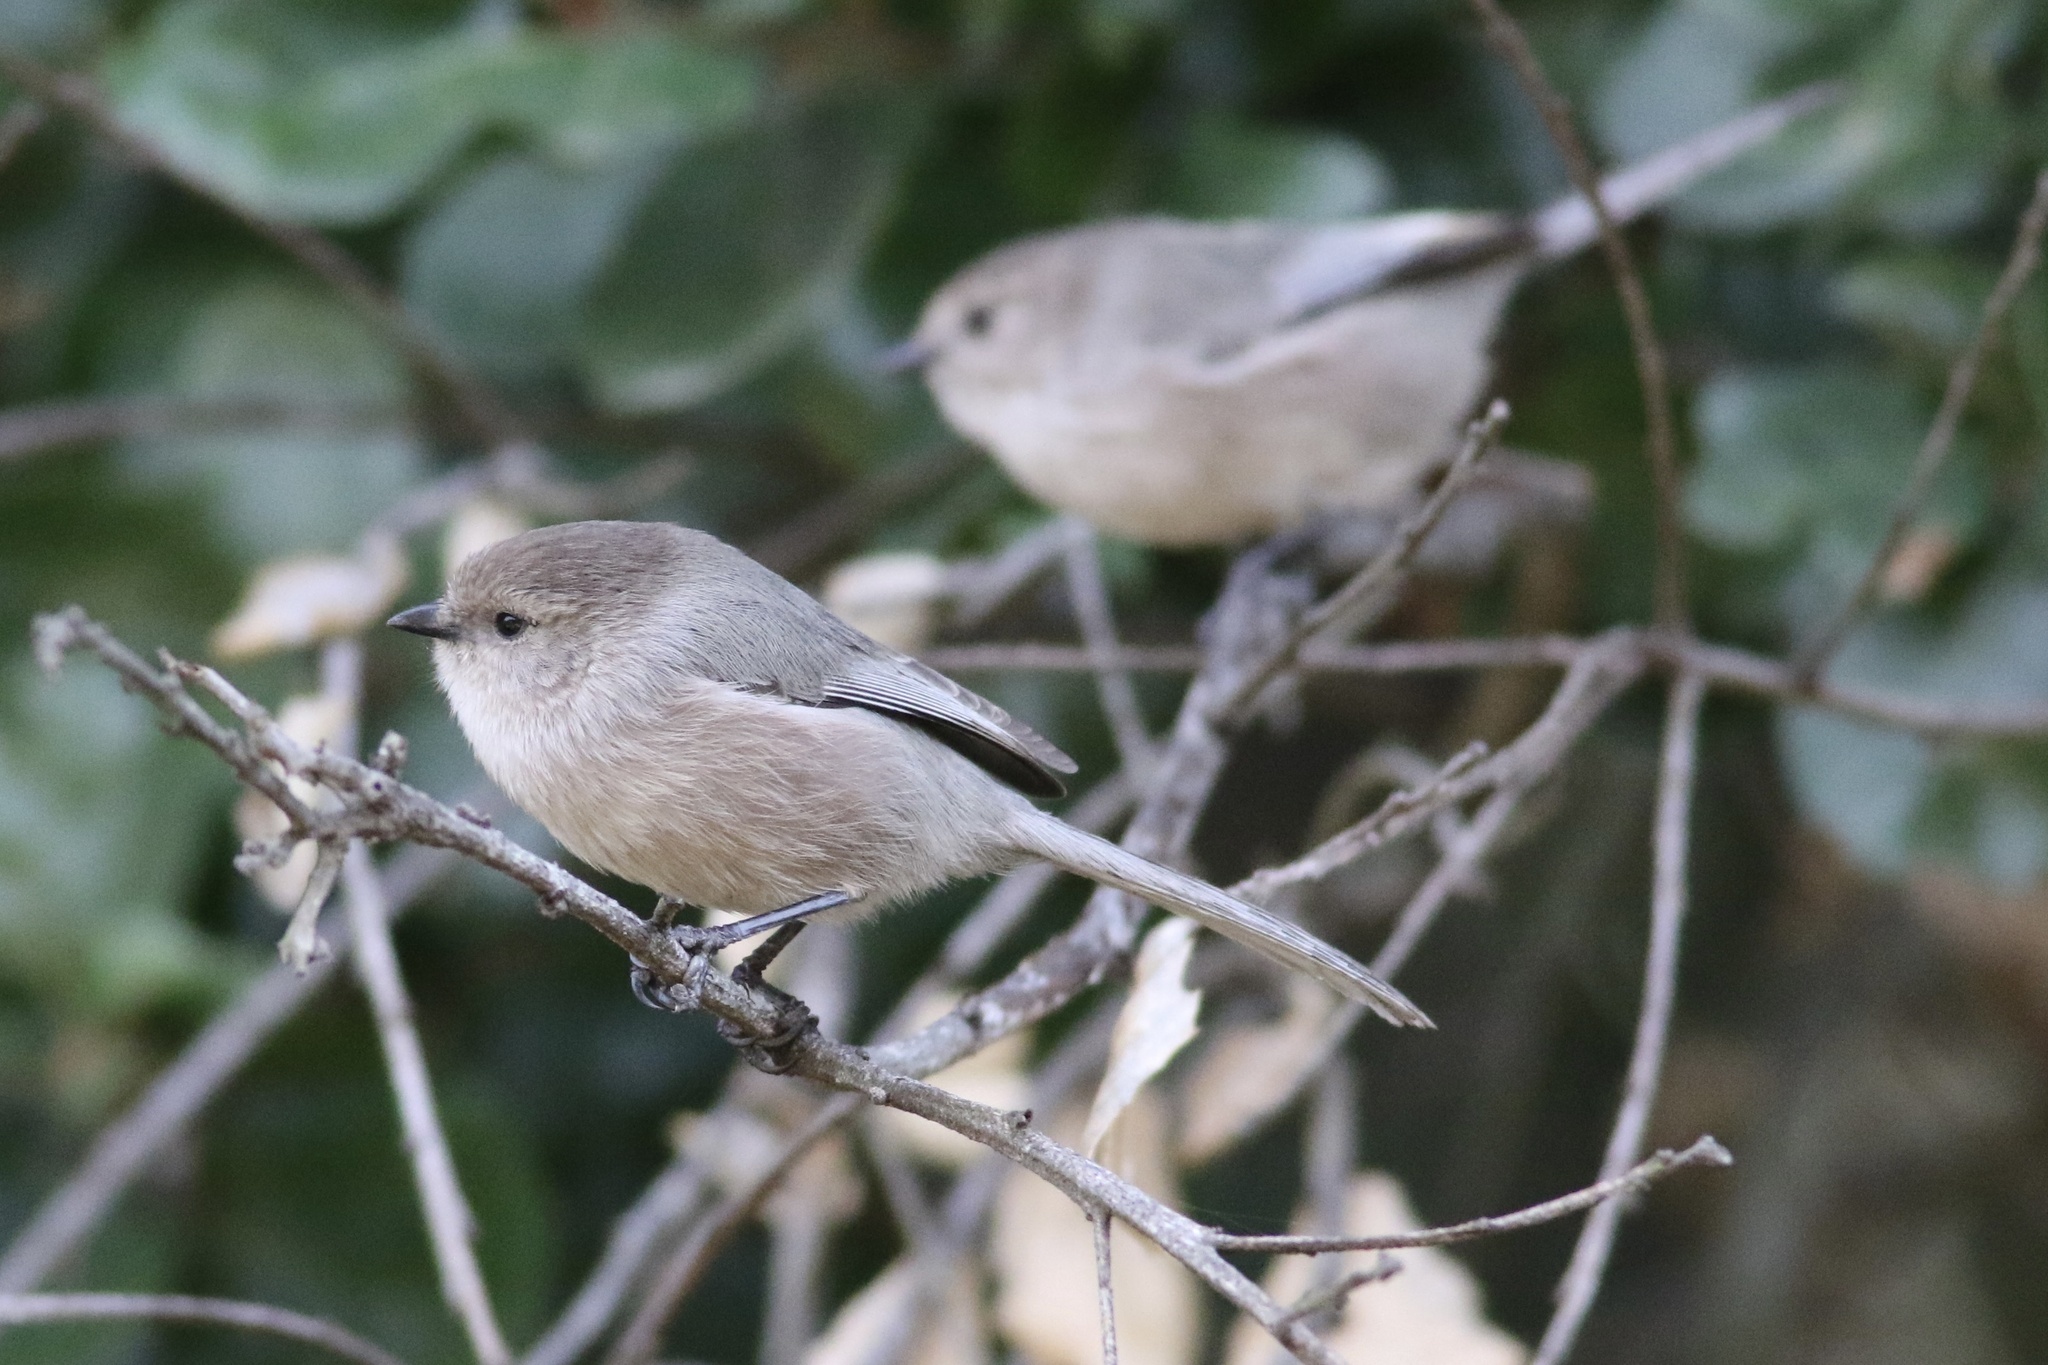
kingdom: Animalia
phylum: Chordata
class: Aves
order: Passeriformes
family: Aegithalidae
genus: Psaltriparus
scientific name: Psaltriparus minimus
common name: American bushtit
